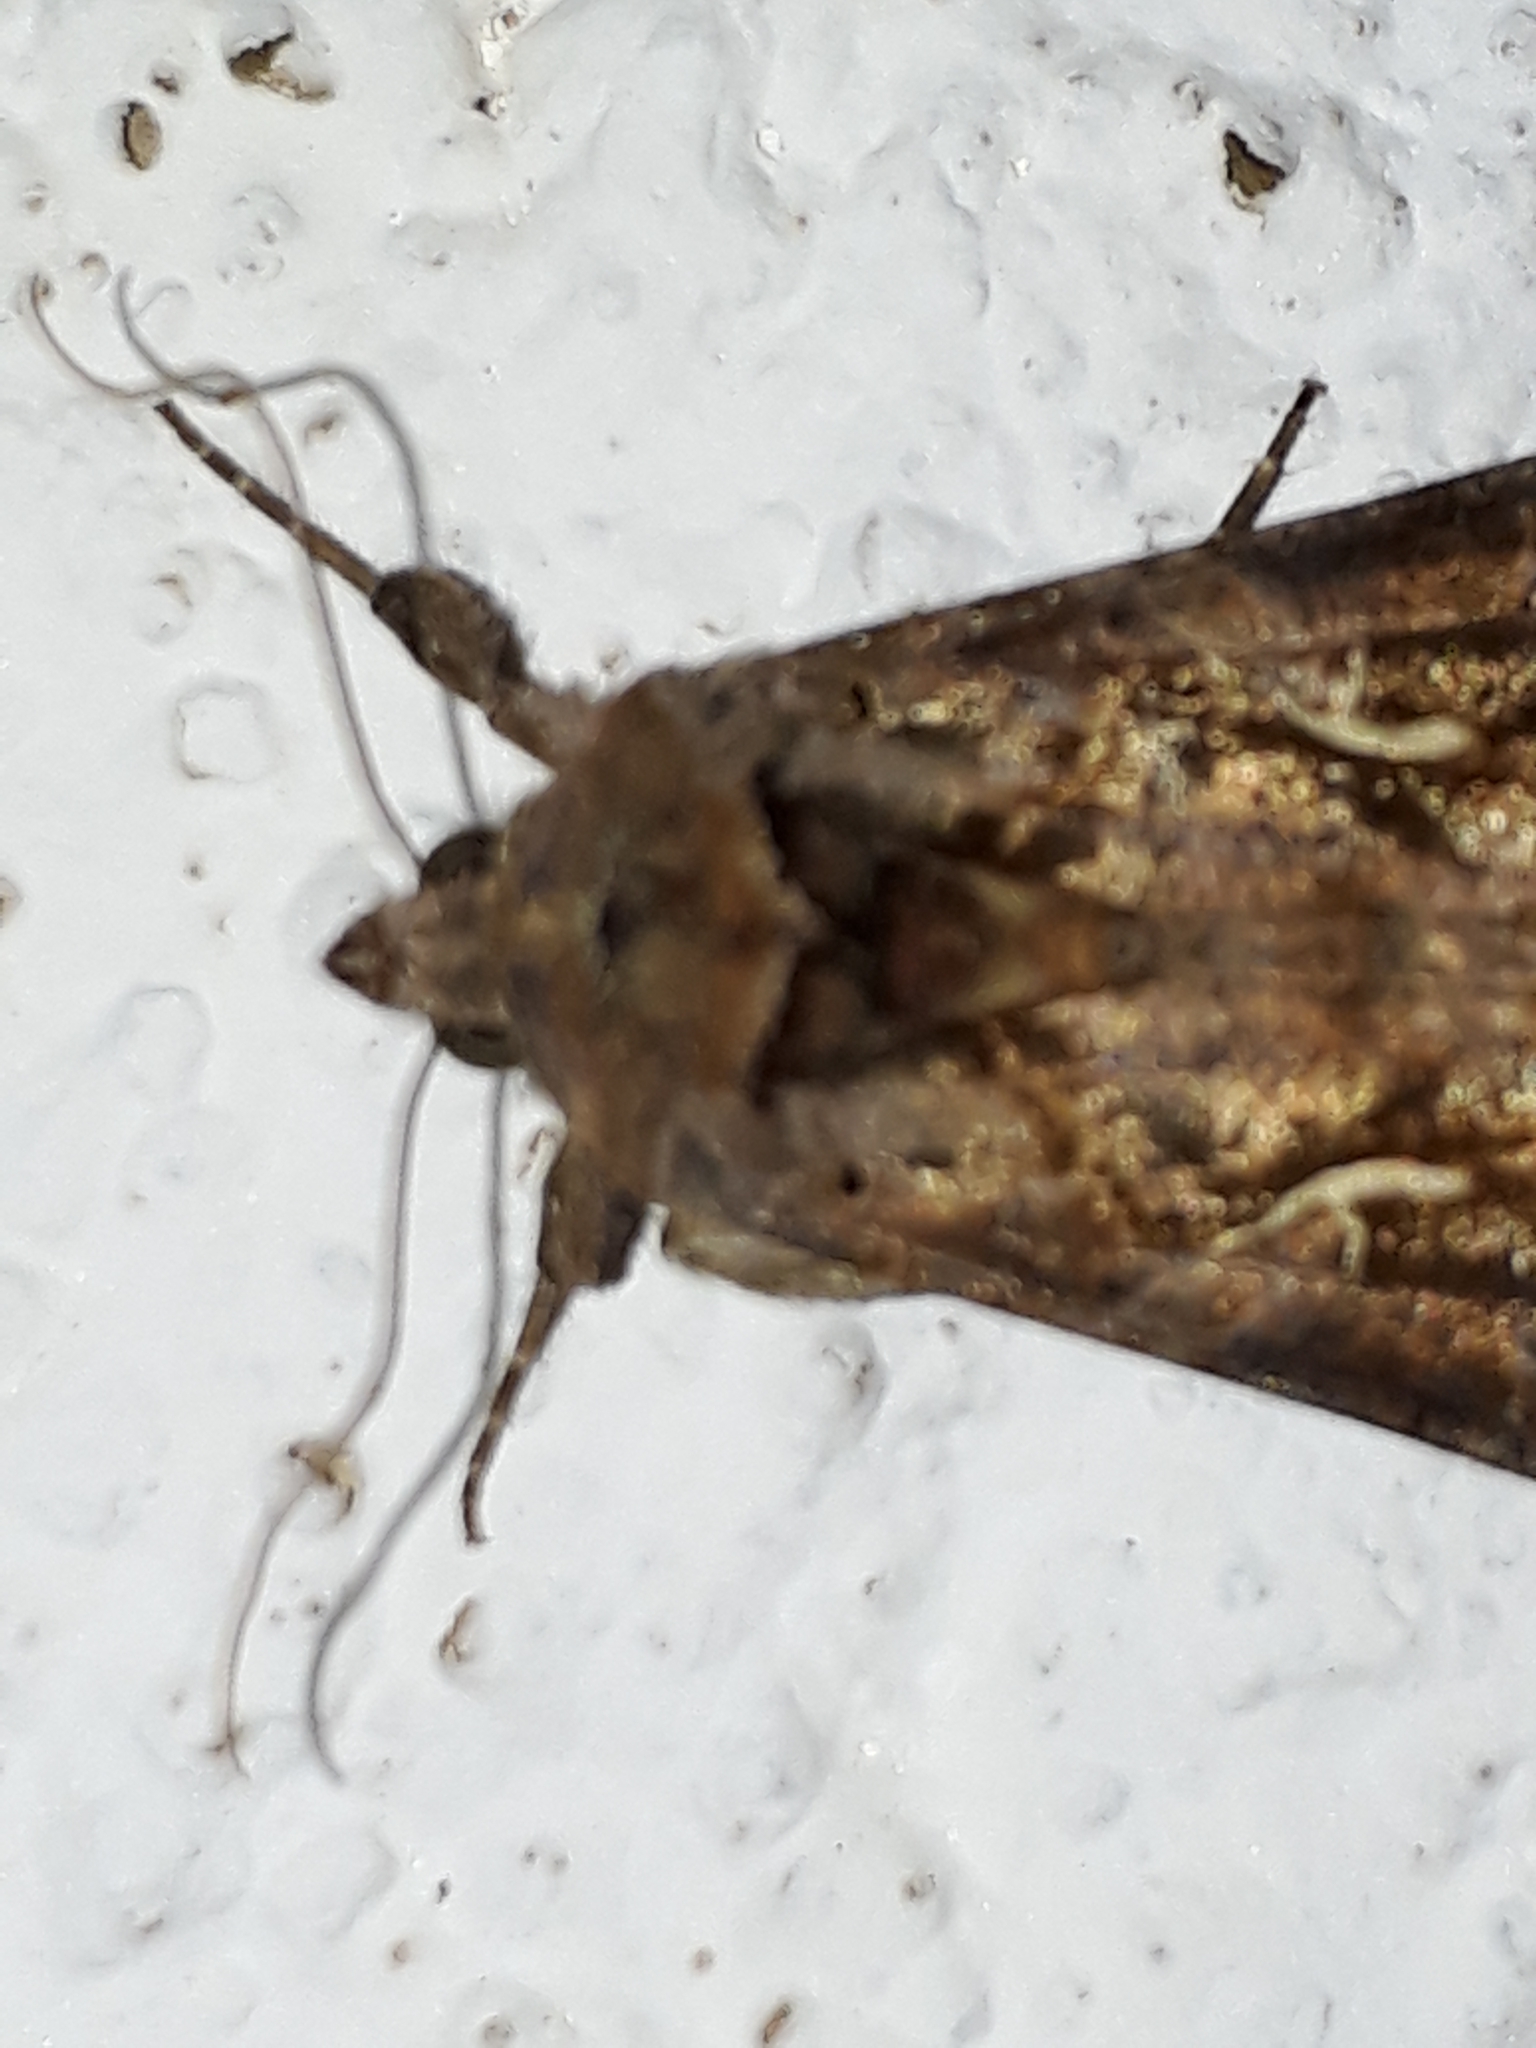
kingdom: Animalia
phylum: Arthropoda
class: Insecta
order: Lepidoptera
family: Noctuidae
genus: Autographa
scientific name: Autographa gamma
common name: Silver y
